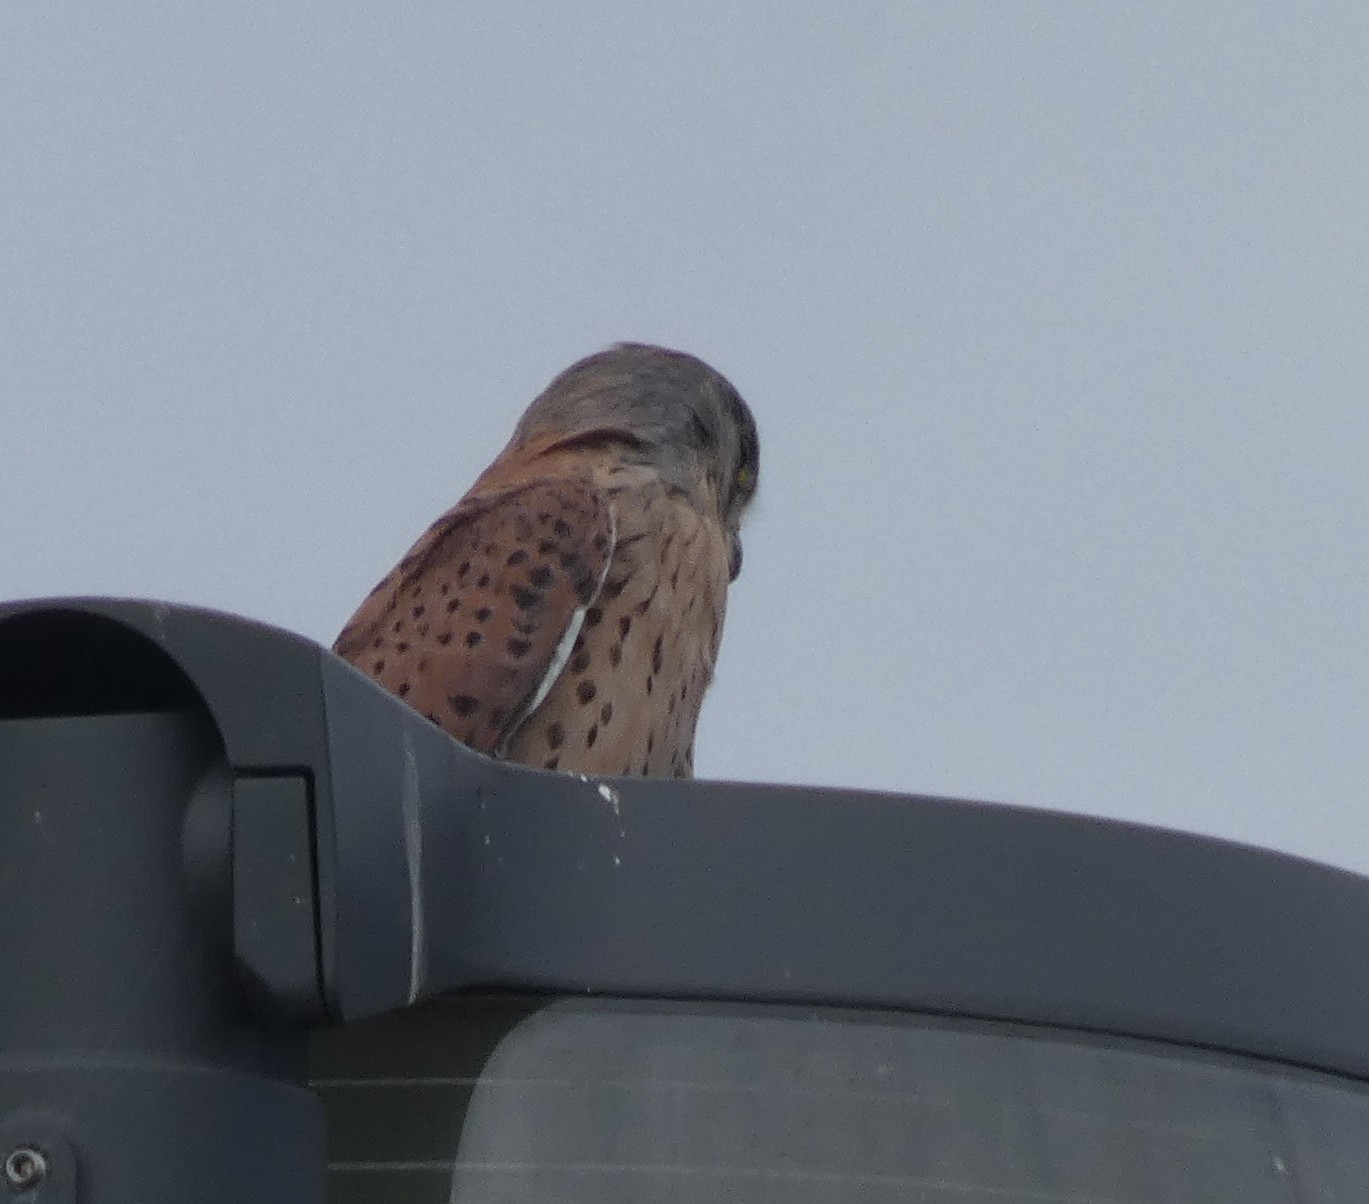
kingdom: Animalia
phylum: Chordata
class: Aves
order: Falconiformes
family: Falconidae
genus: Falco
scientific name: Falco tinnunculus
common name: Common kestrel
